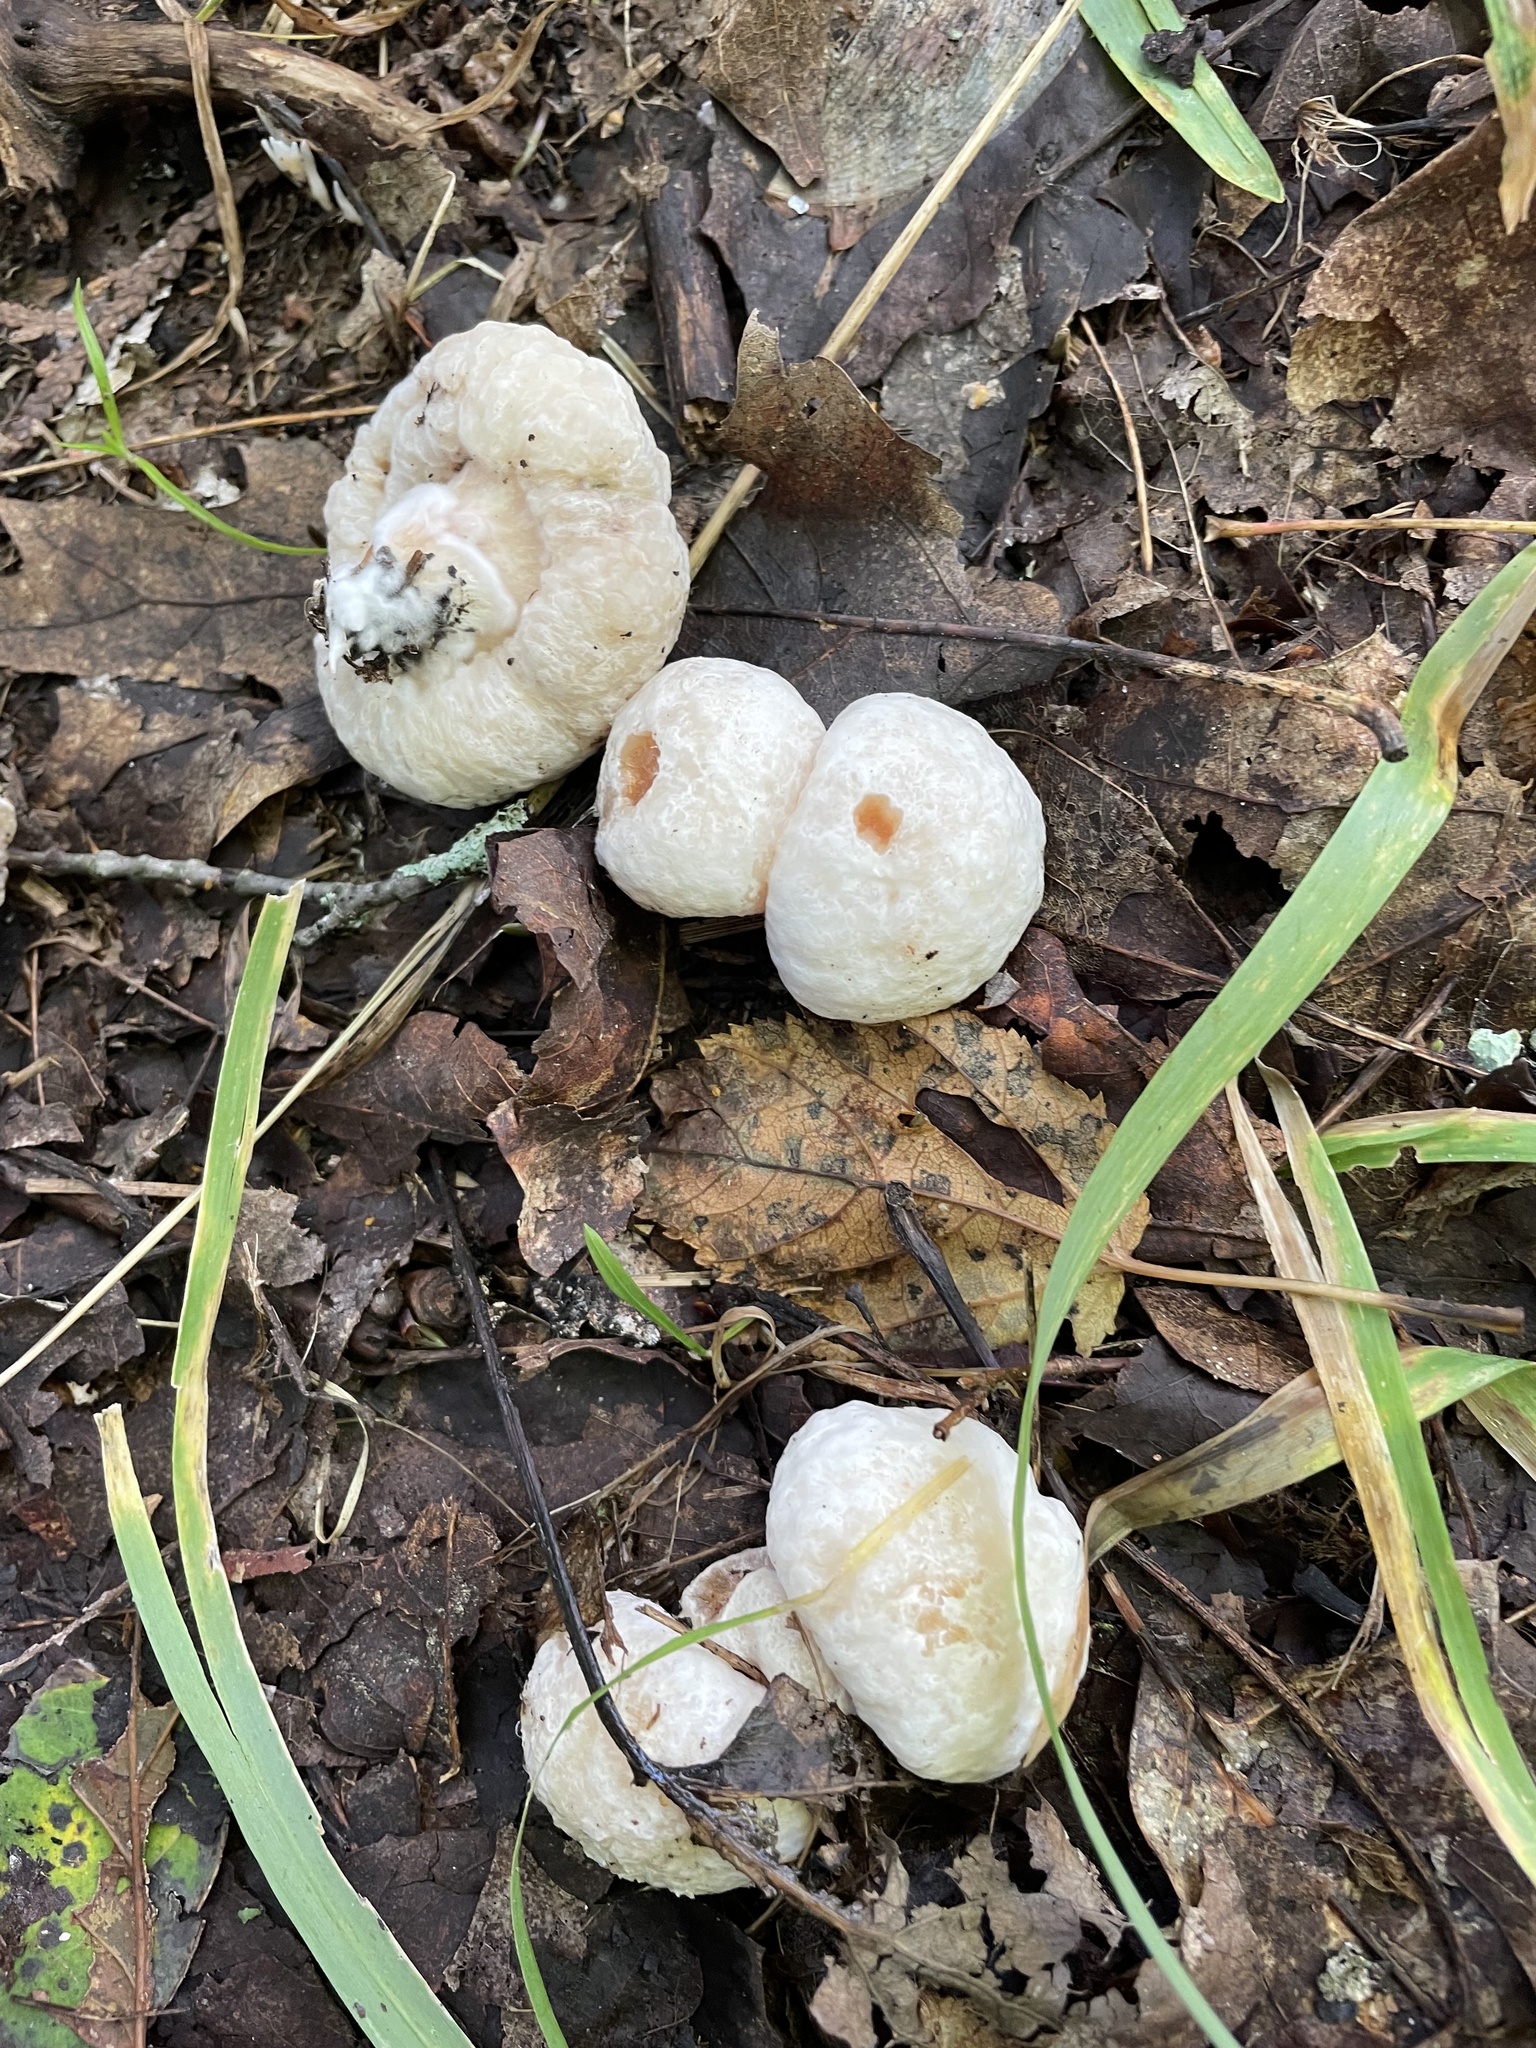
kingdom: Fungi
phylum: Basidiomycota
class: Agaricomycetes
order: Agaricales
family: Entolomataceae
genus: Entoloma
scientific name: Entoloma abortivum
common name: Aborted entoloma
